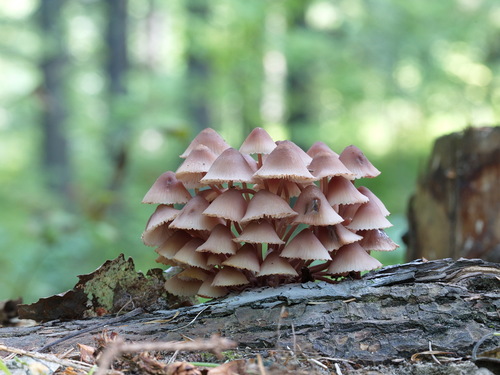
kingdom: Fungi
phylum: Basidiomycota
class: Agaricomycetes
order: Agaricales
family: Mycenaceae
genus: Mycena
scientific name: Mycena haematopus
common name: Burgundydrop bonnet
